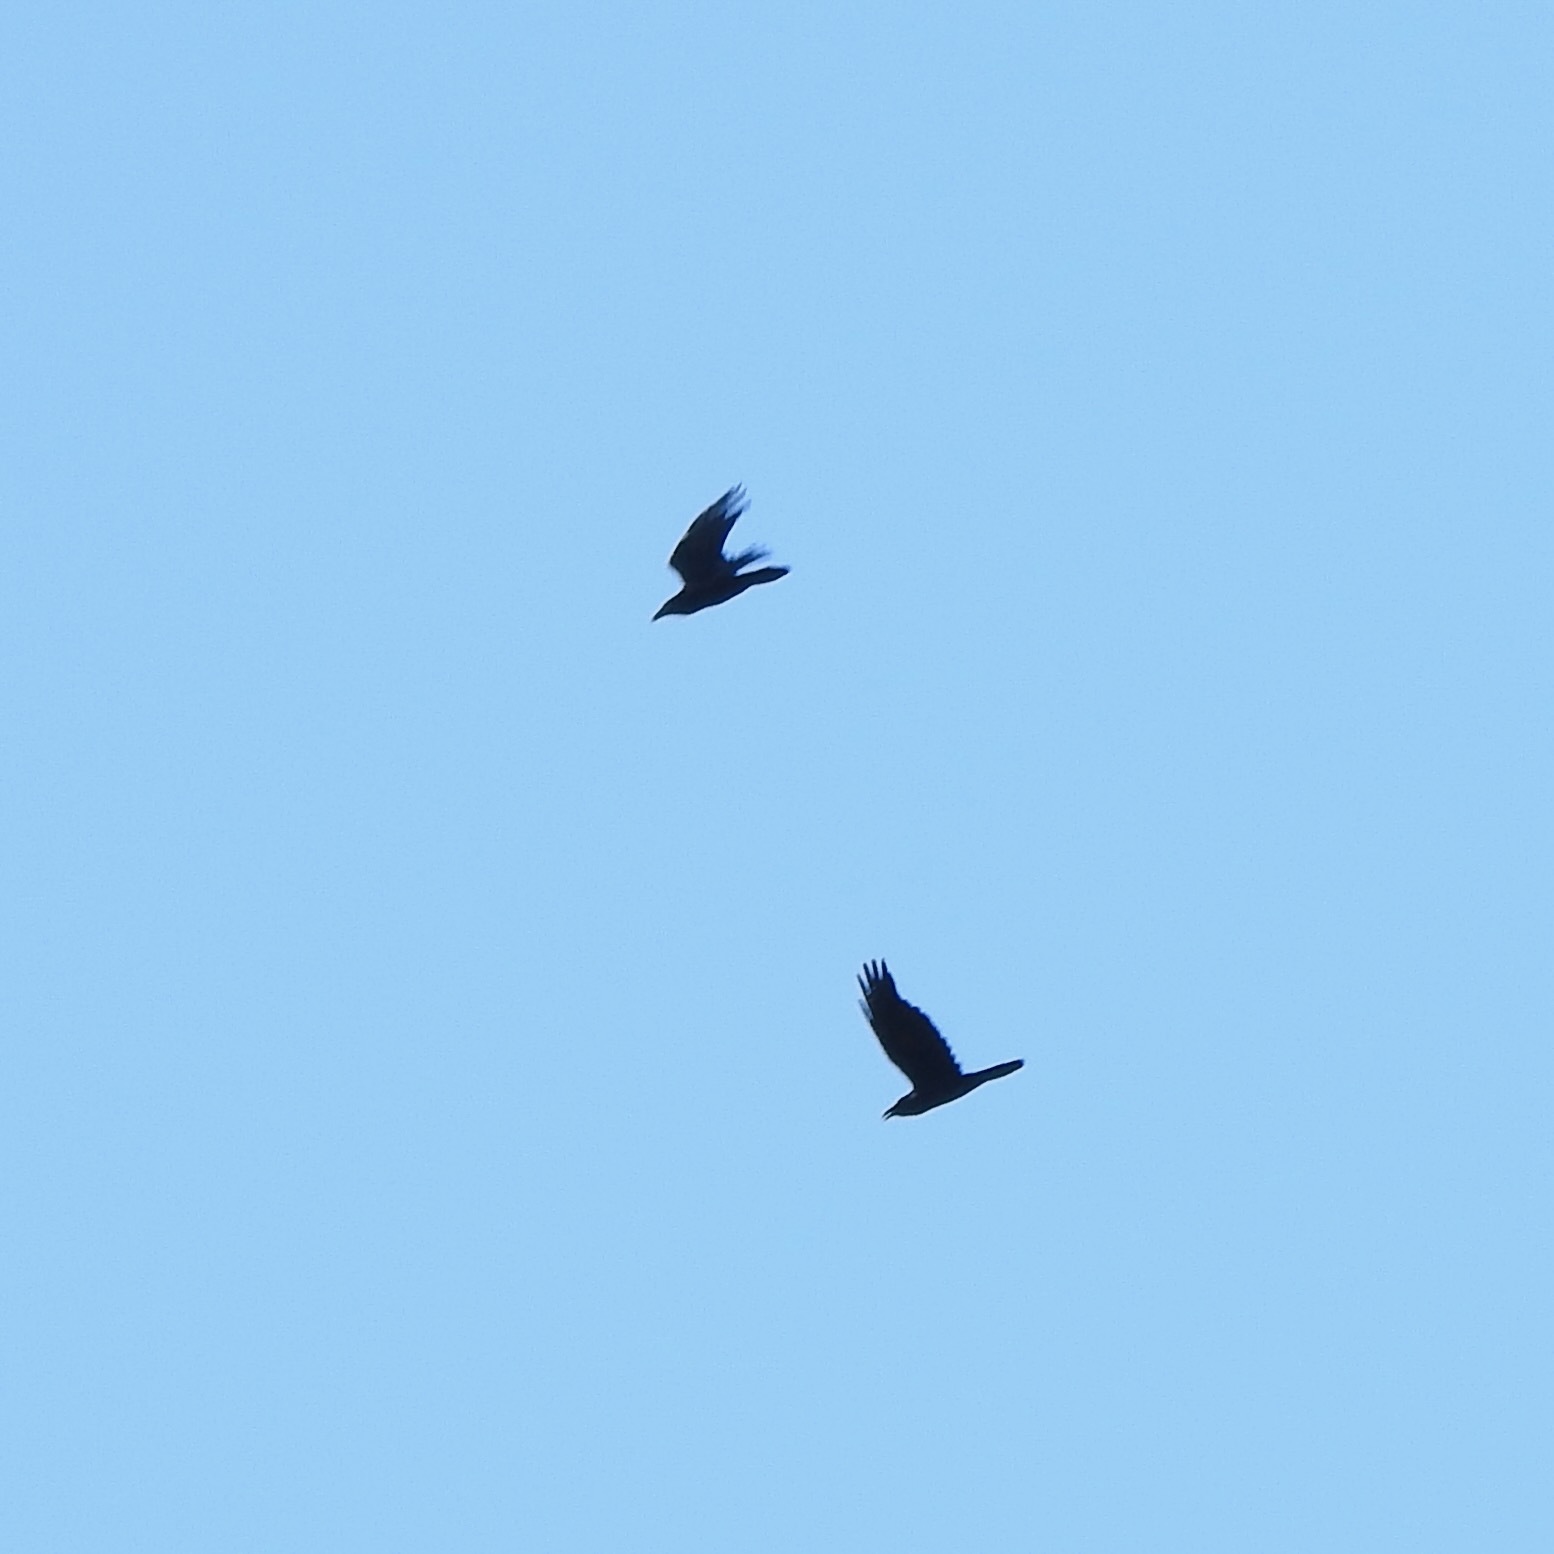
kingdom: Animalia
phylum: Chordata
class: Aves
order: Passeriformes
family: Corvidae
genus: Corvus
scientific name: Corvus corax
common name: Common raven
